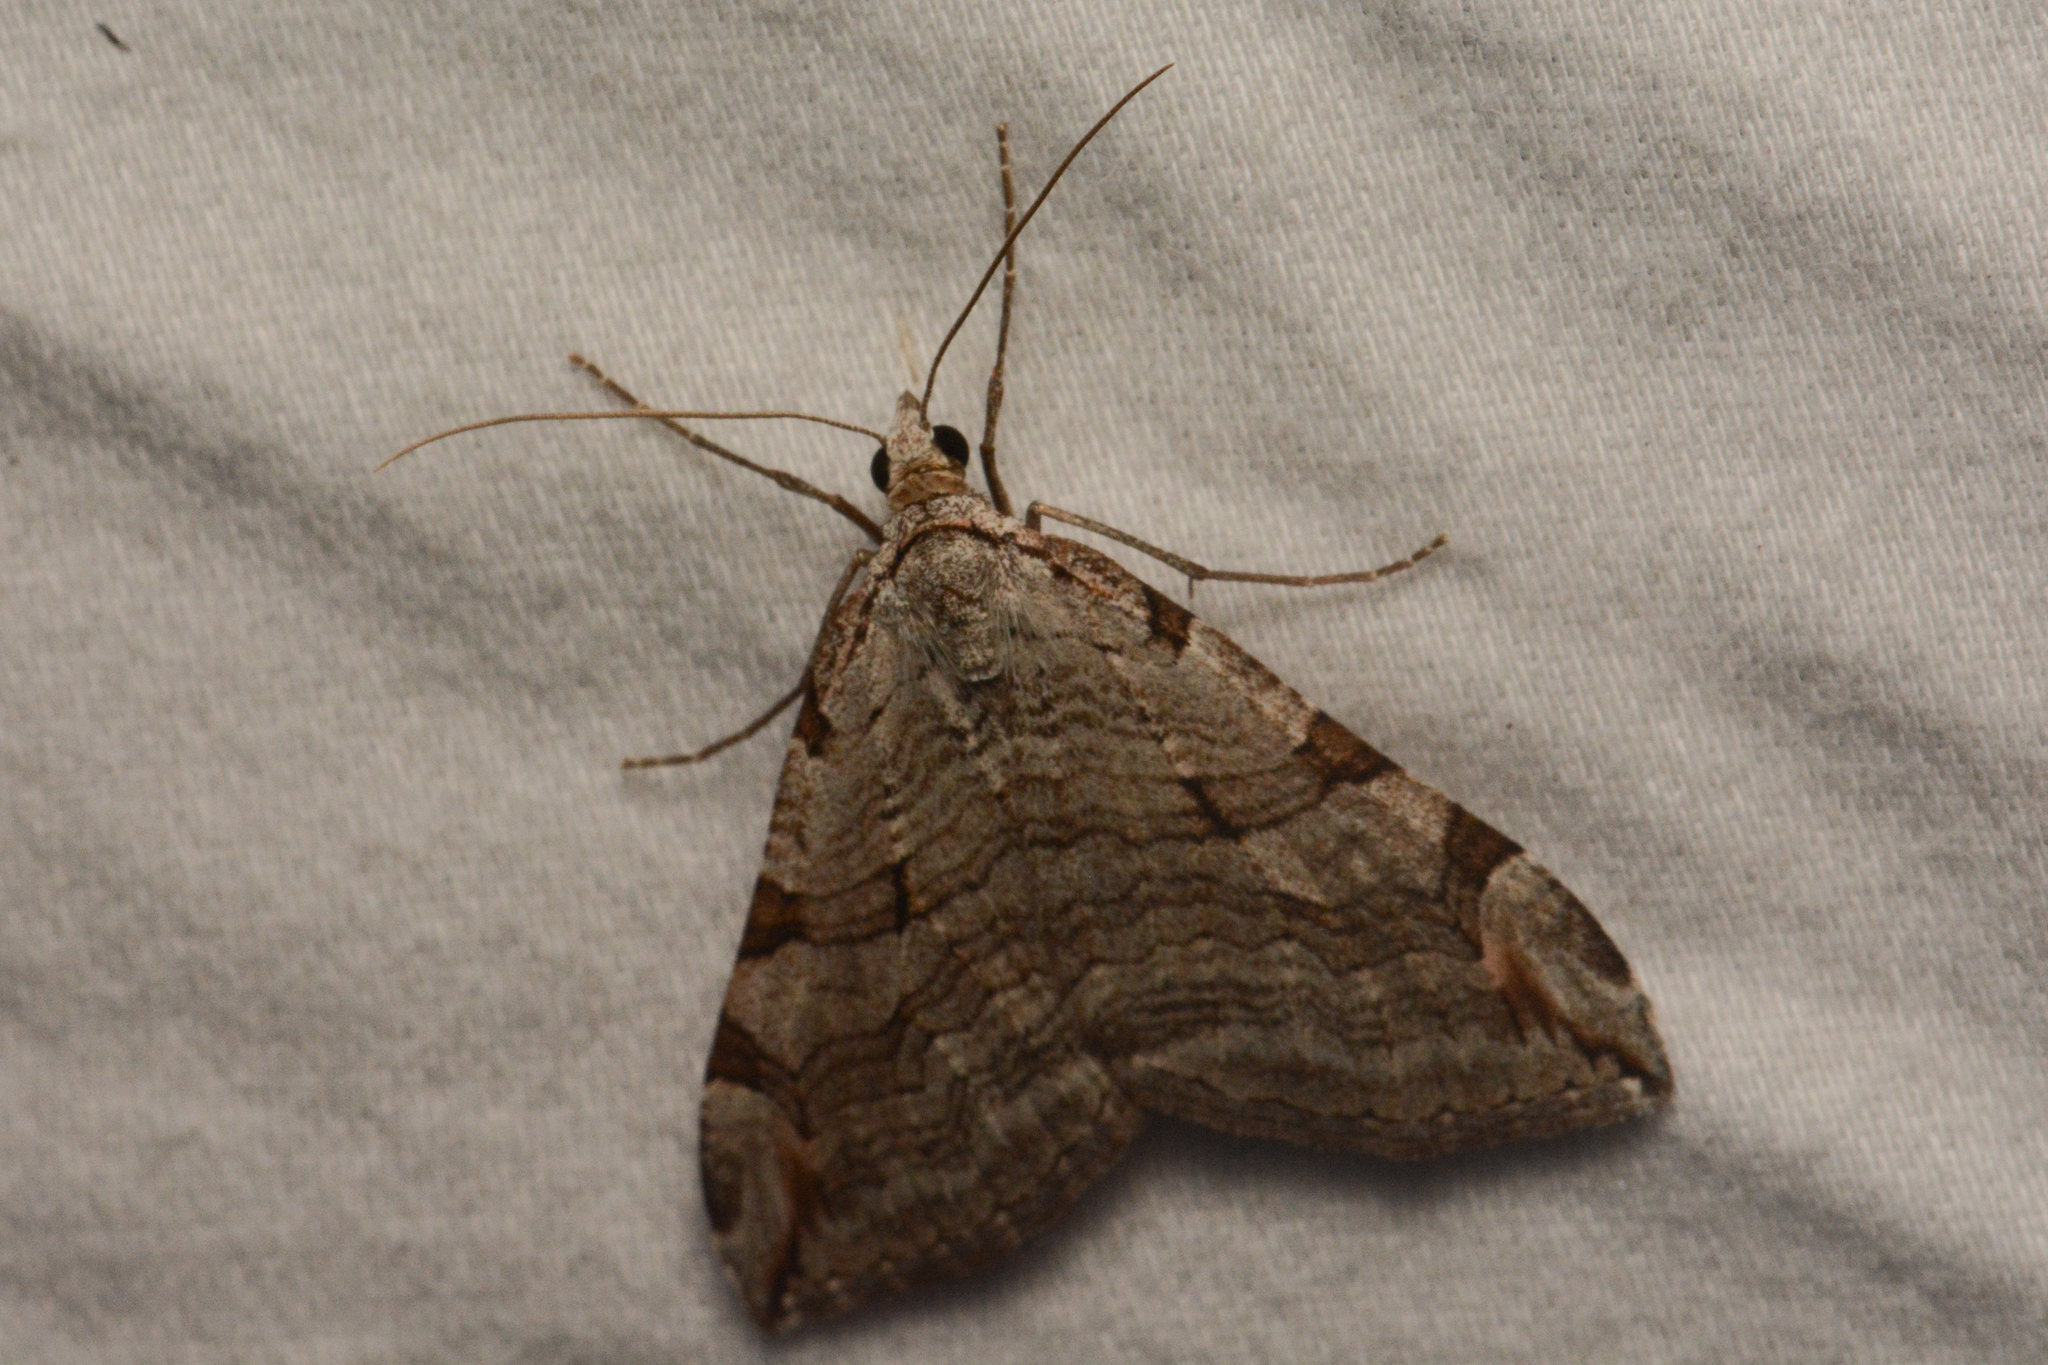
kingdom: Animalia
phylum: Arthropoda
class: Insecta
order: Lepidoptera
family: Geometridae
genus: Aplocera
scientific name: Aplocera plagiata
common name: Treble-bar
